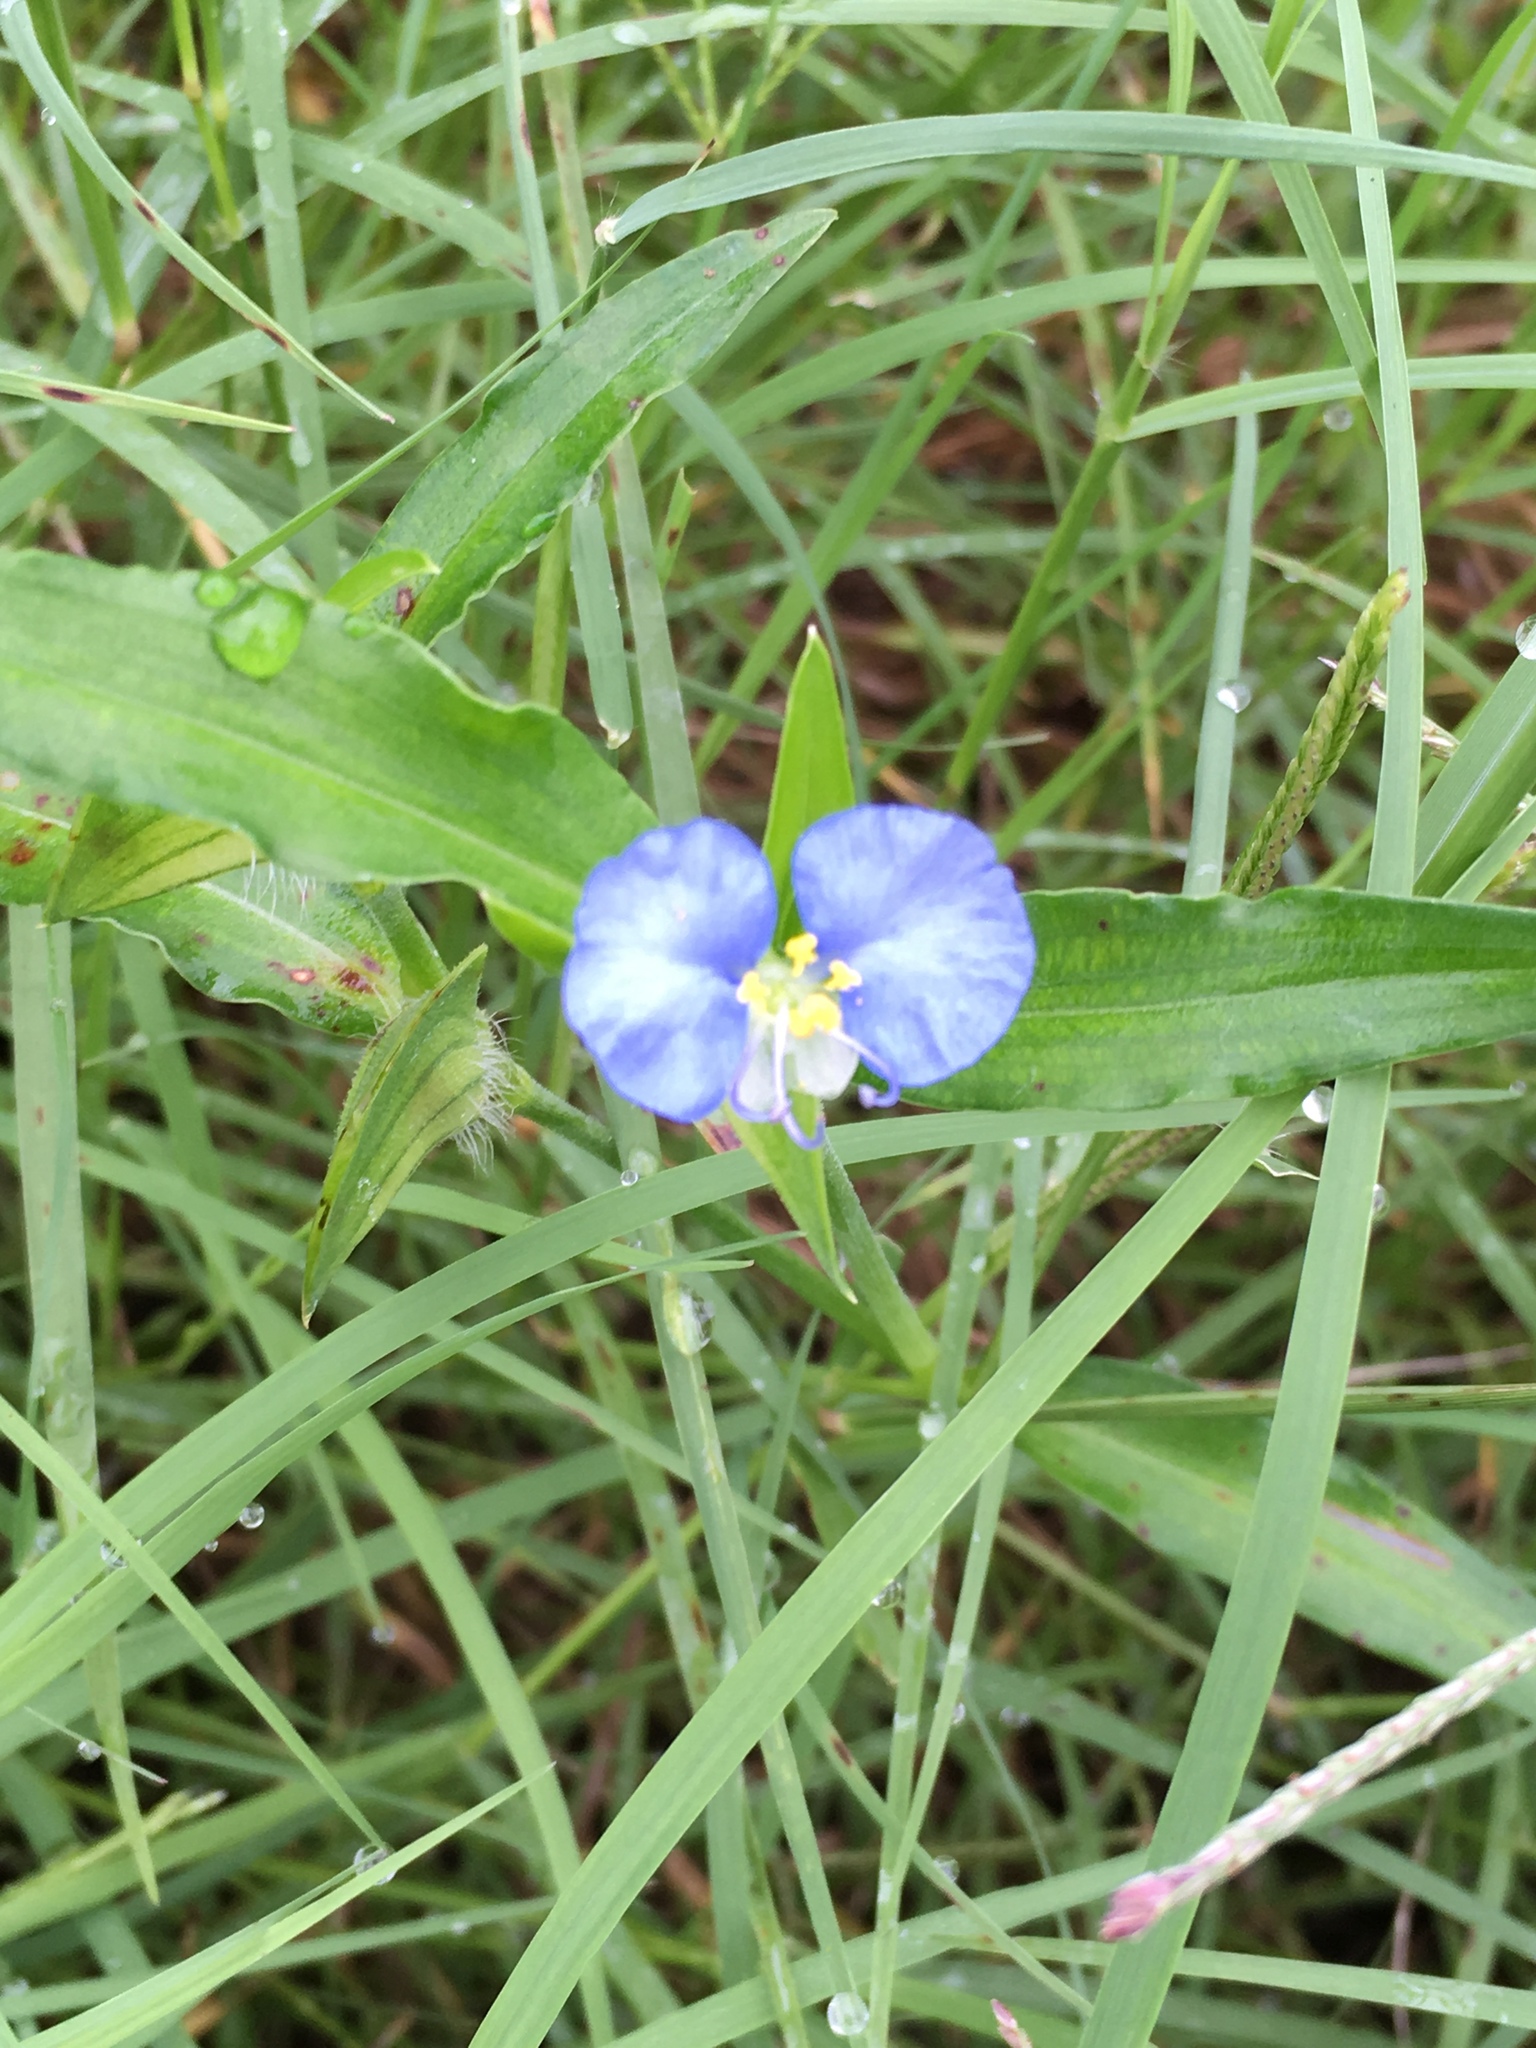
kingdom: Plantae
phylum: Tracheophyta
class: Liliopsida
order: Commelinales
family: Commelinaceae
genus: Commelina
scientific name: Commelina erecta
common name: Blousel blommetjie
